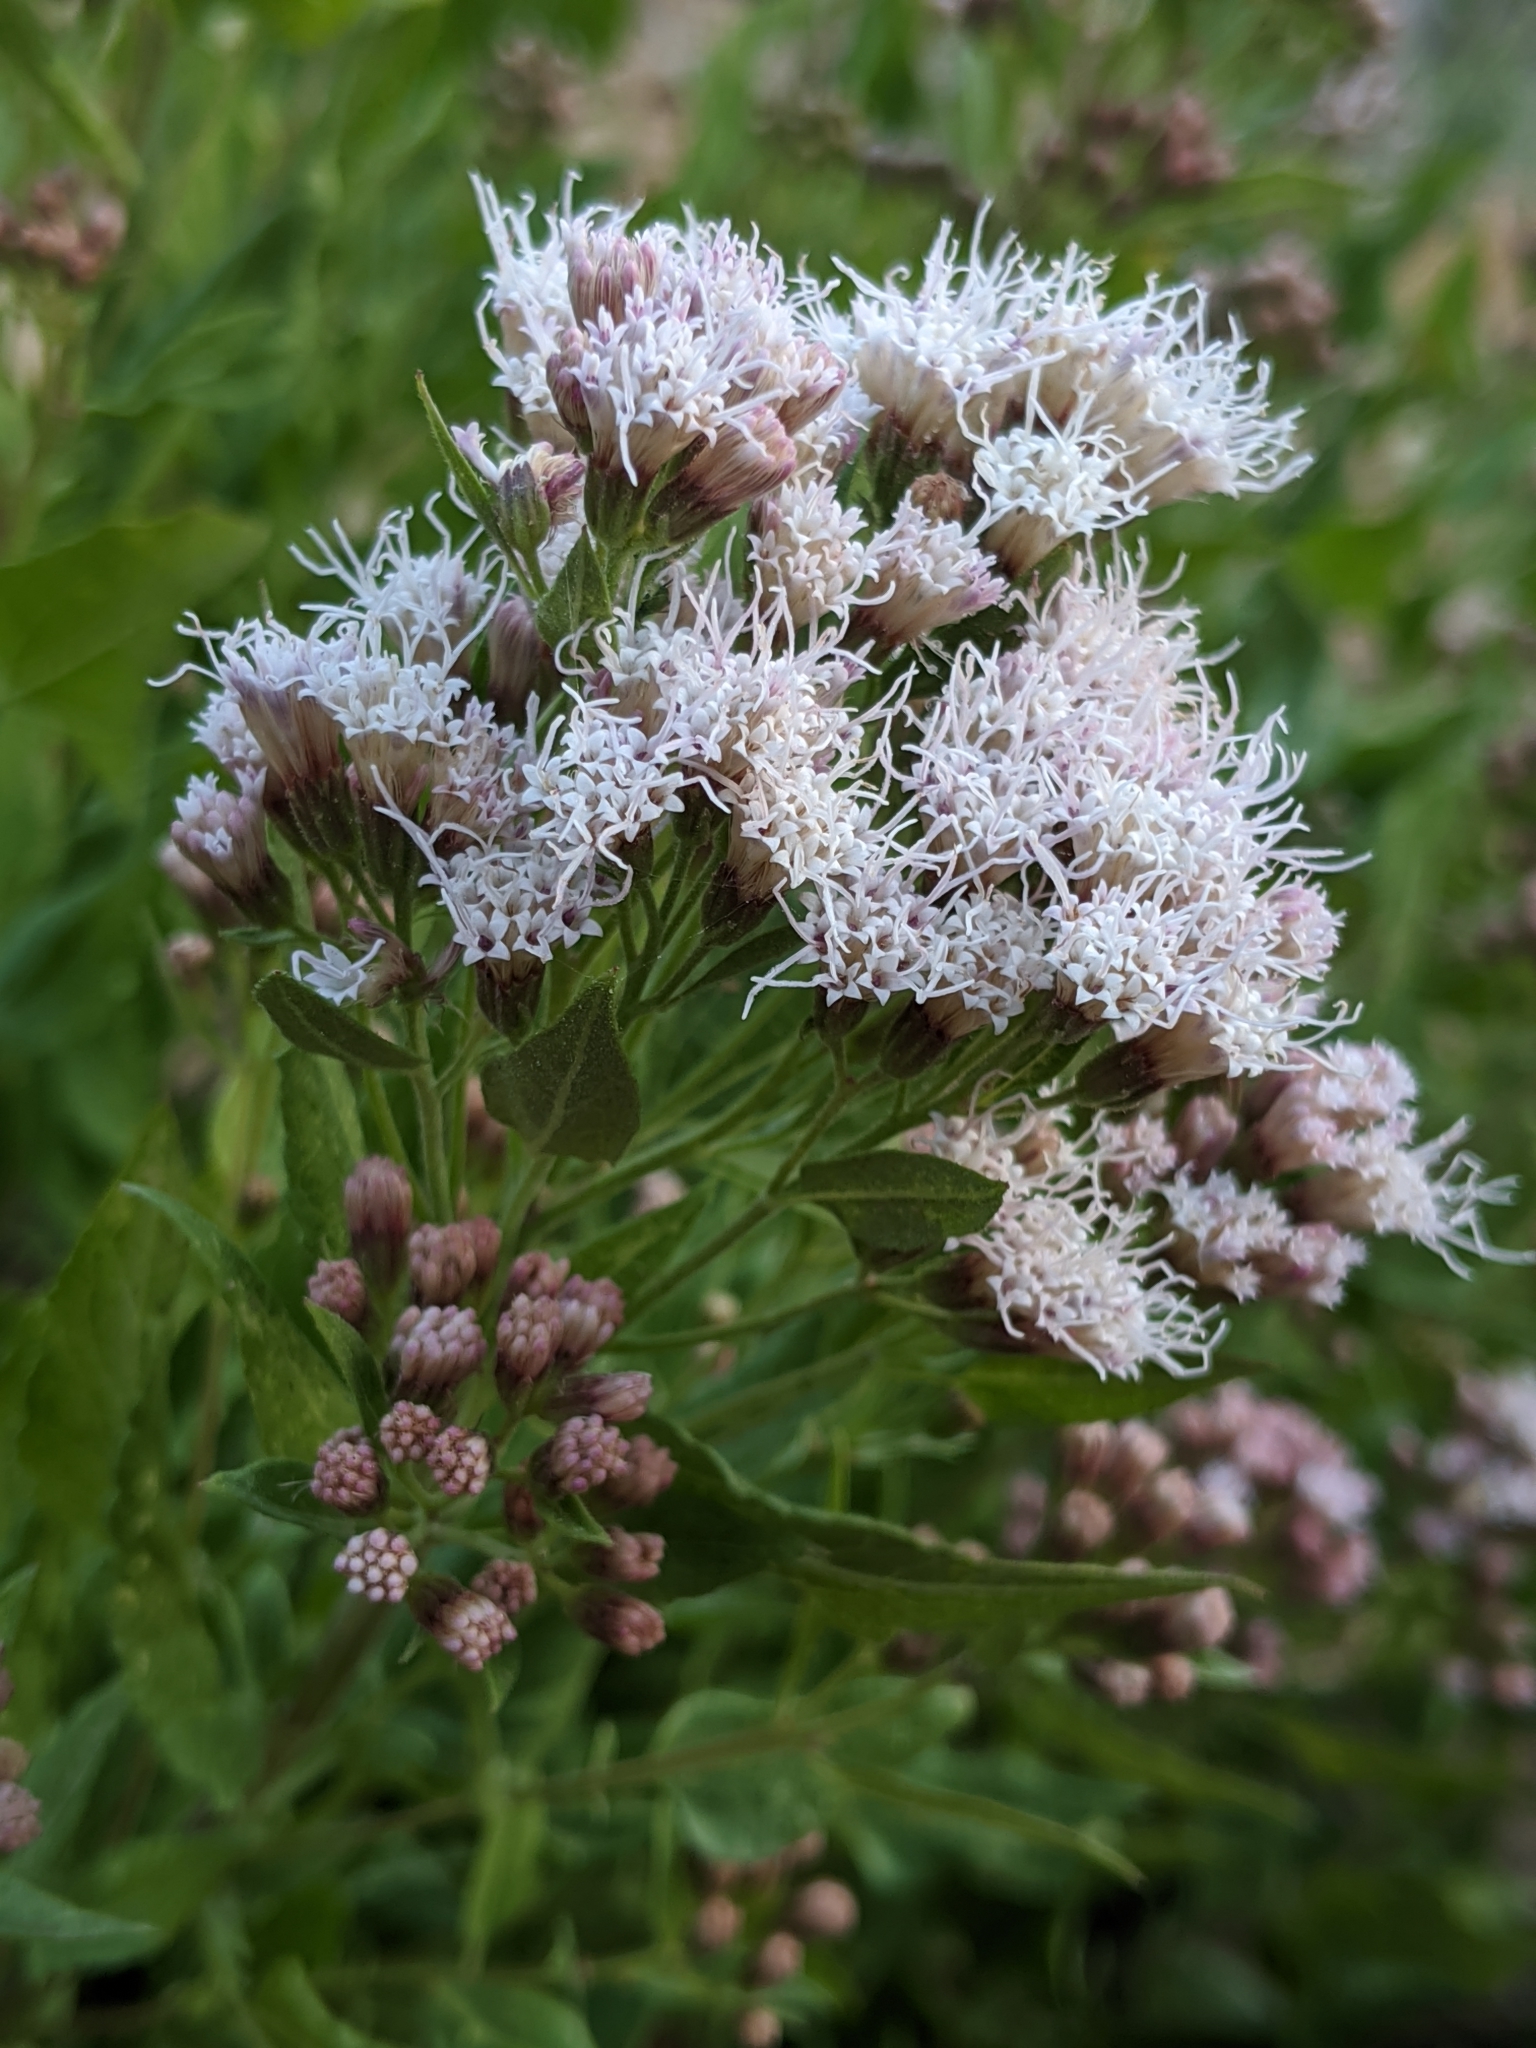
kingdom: Plantae
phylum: Tracheophyta
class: Magnoliopsida
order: Asterales
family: Asteraceae
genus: Ageratina
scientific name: Ageratina occidentalis
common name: Western snakeroot
